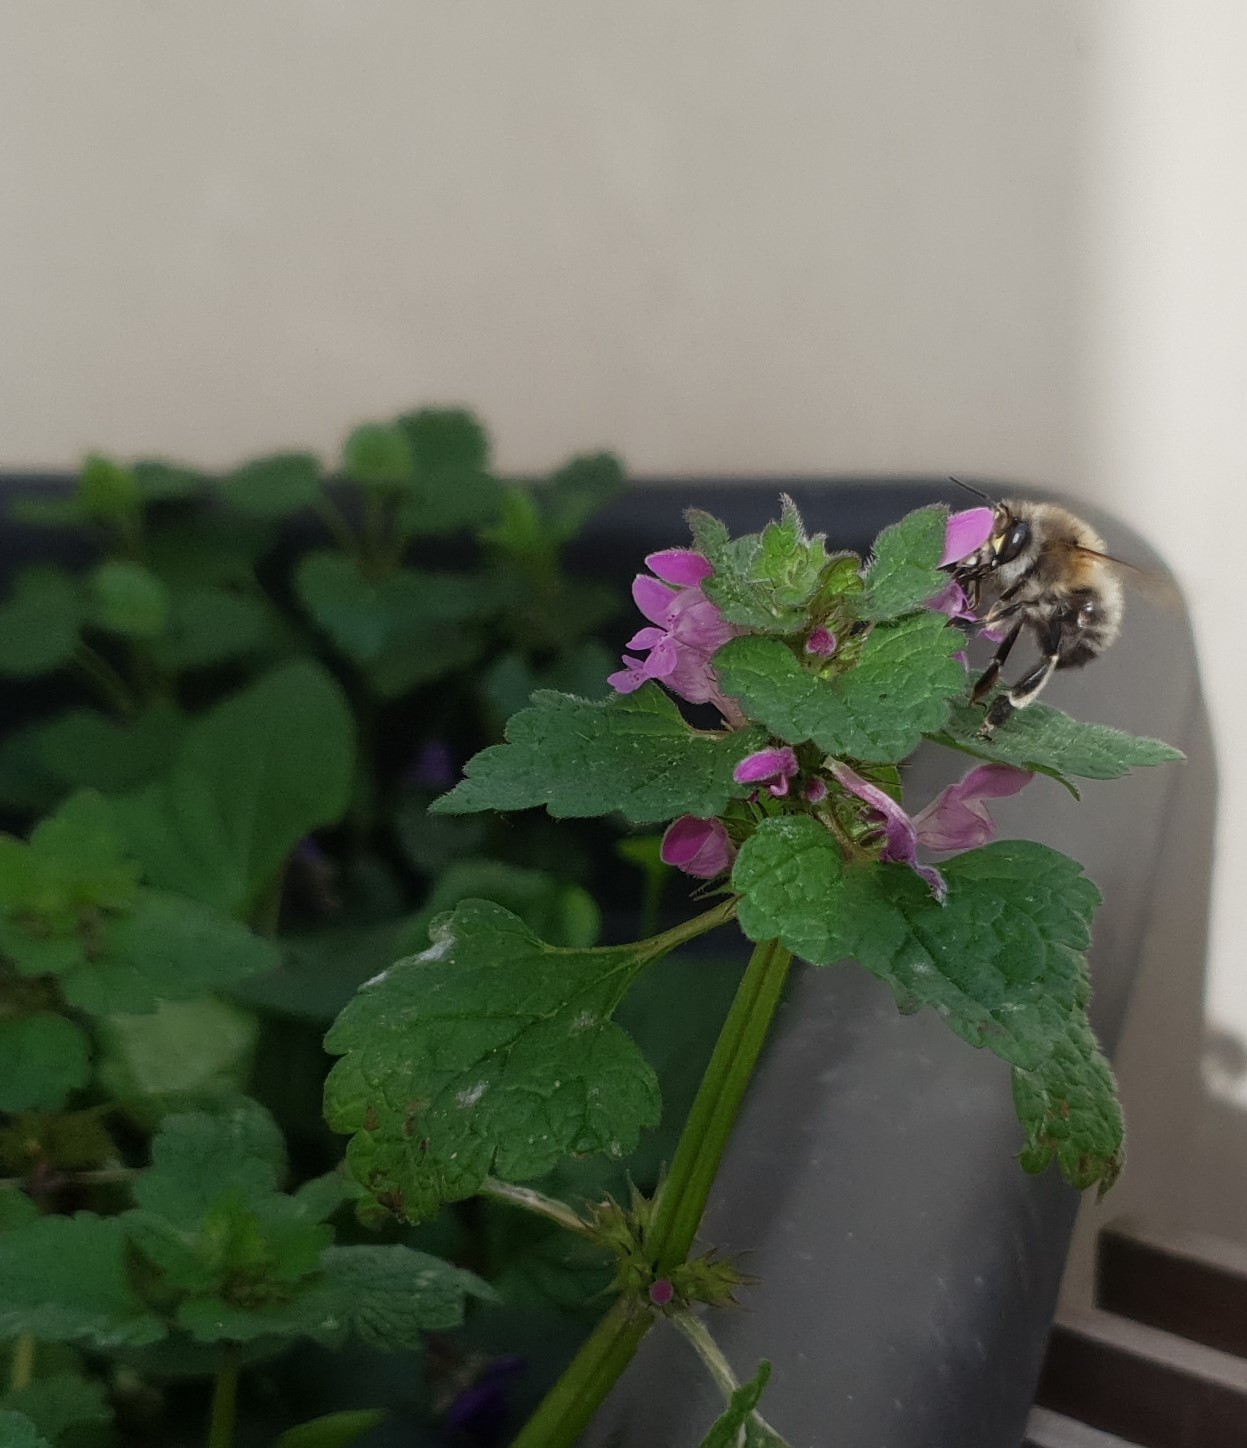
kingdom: Animalia
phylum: Arthropoda
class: Insecta
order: Hymenoptera
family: Apidae
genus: Anthophora
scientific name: Anthophora plumipes
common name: Hairy-footed flower bee
